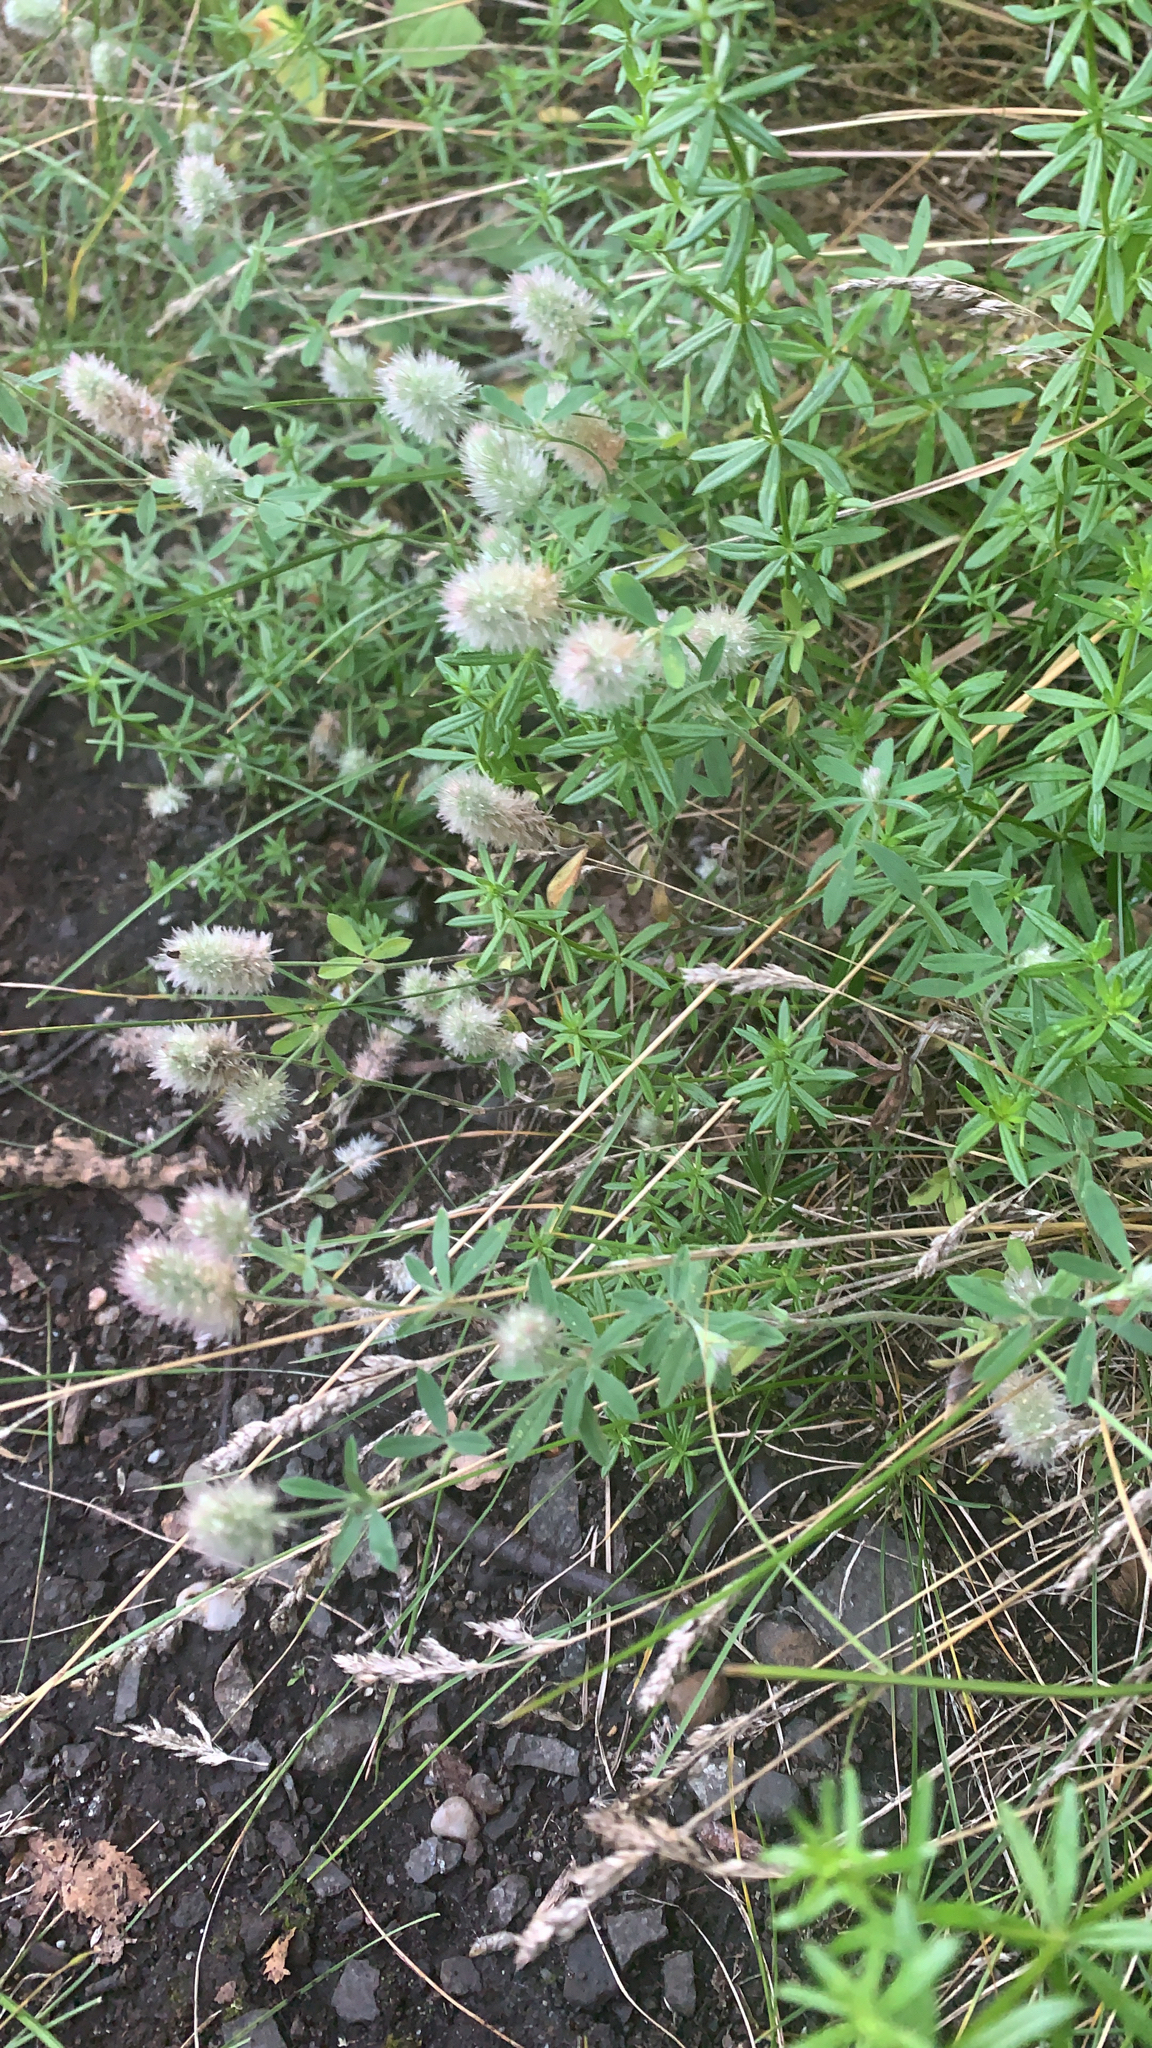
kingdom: Plantae
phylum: Tracheophyta
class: Magnoliopsida
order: Fabales
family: Fabaceae
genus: Trifolium
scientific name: Trifolium arvense
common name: Hare's-foot clover
